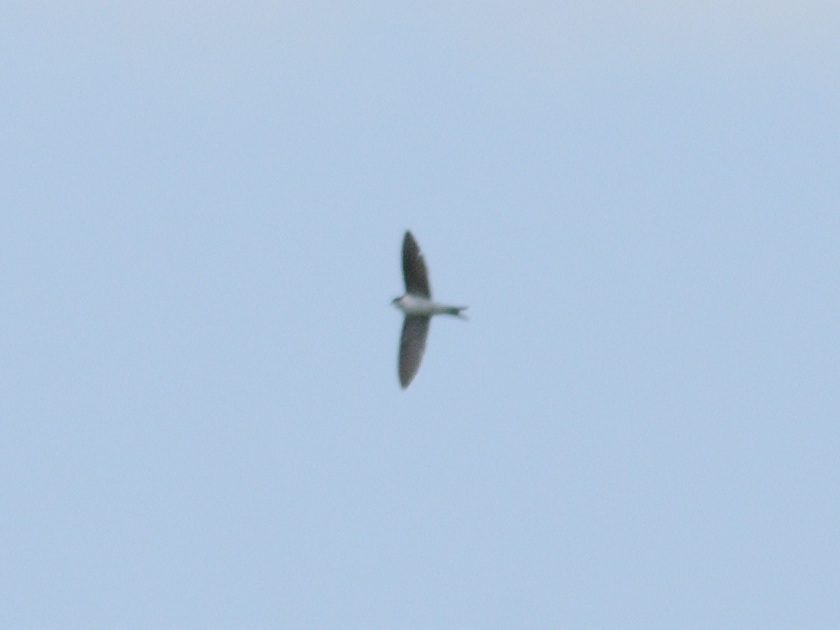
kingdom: Animalia
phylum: Chordata
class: Aves
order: Passeriformes
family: Hirundinidae
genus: Delichon
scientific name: Delichon urbicum
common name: Common house martin
